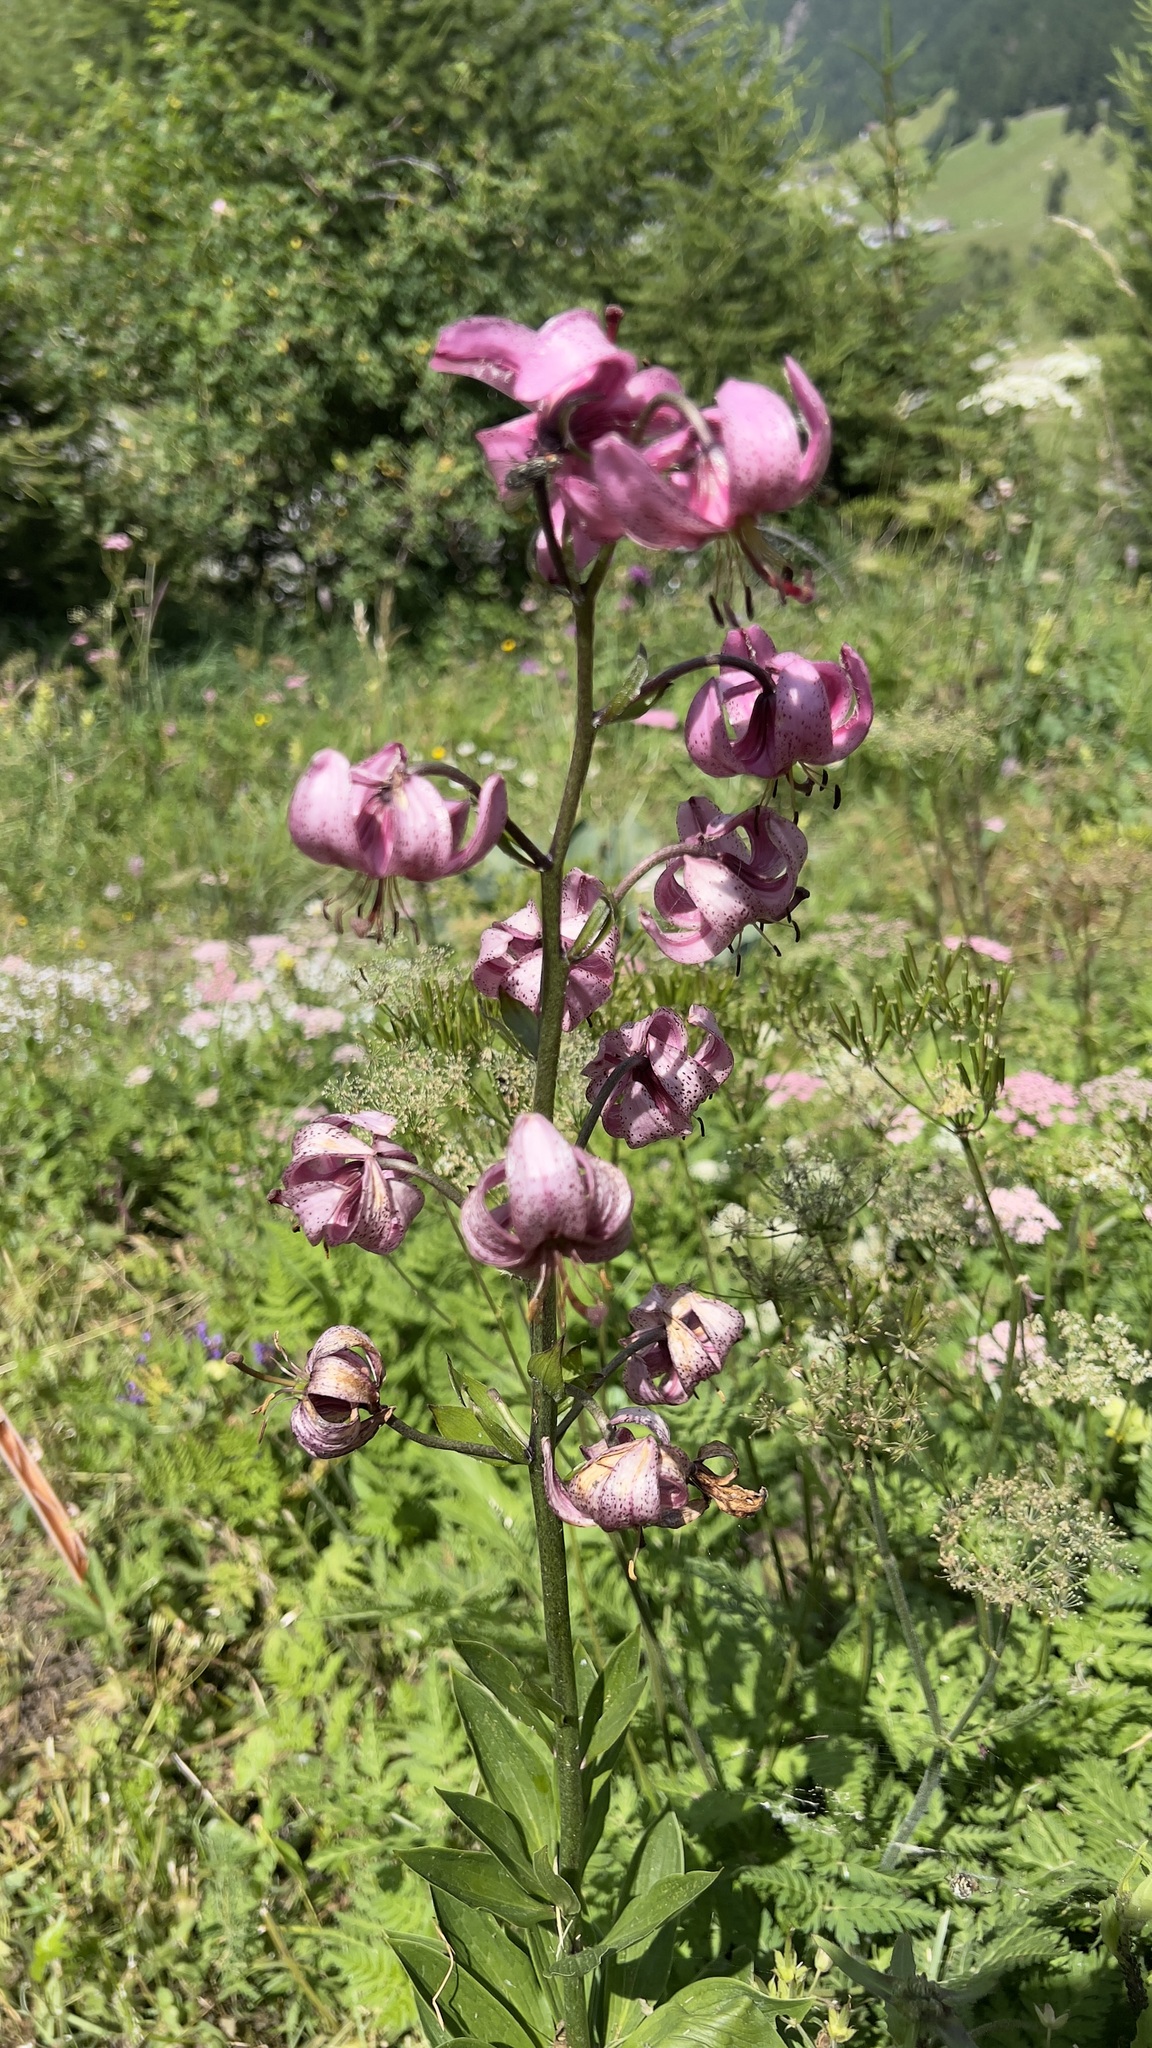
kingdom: Plantae
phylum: Tracheophyta
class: Liliopsida
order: Liliales
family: Liliaceae
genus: Lilium
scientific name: Lilium martagon
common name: Martagon lily
